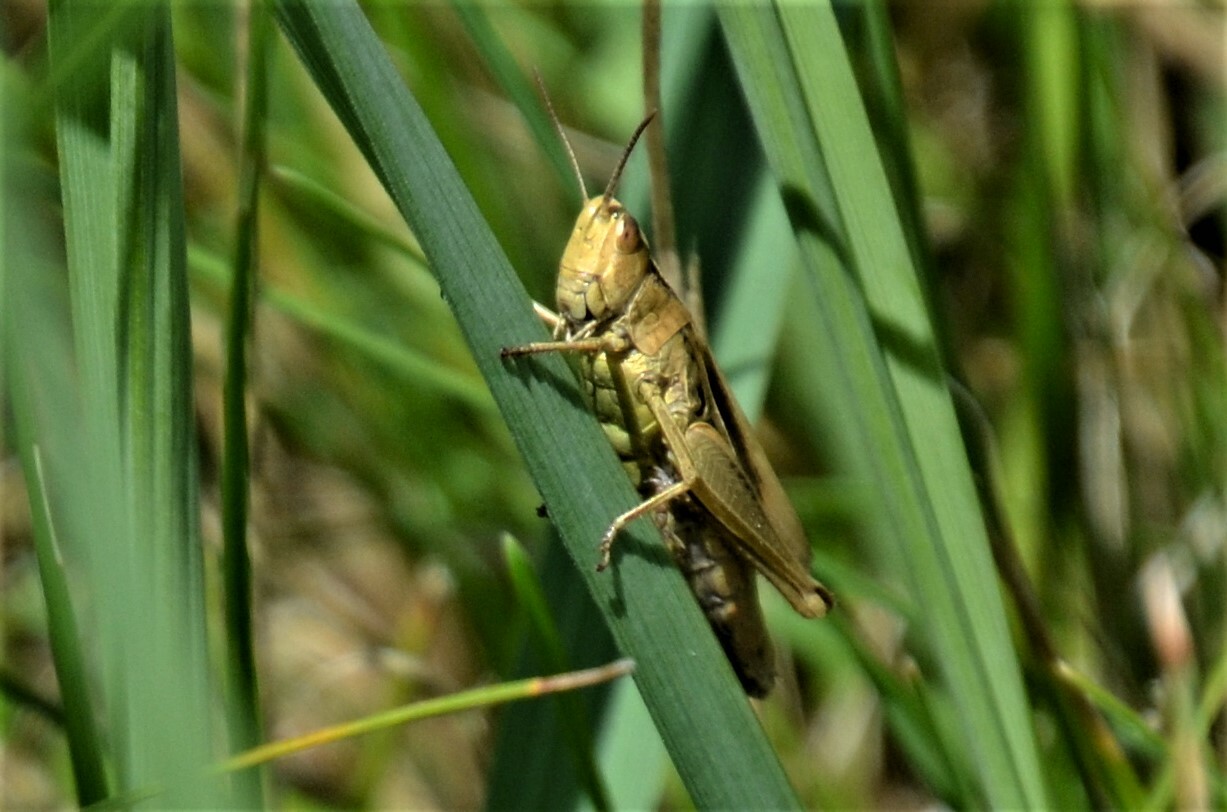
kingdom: Animalia
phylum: Arthropoda
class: Insecta
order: Orthoptera
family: Acrididae
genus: Chorthippus
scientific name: Chorthippus albomarginatus
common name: Lesser marsh grasshopper
